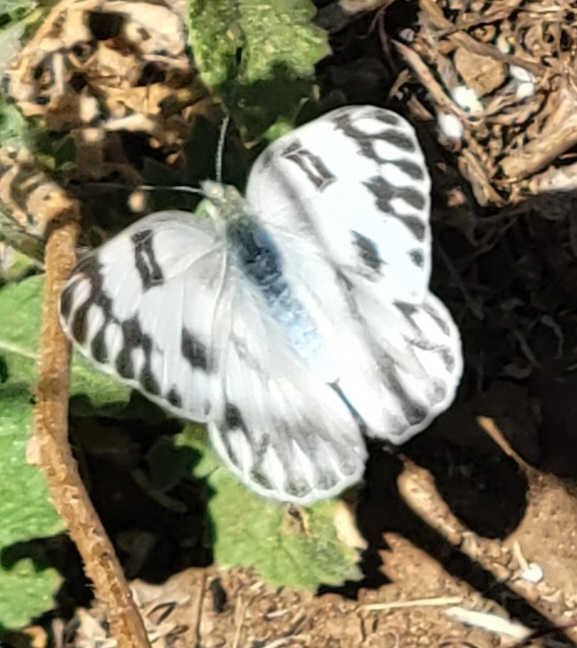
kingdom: Animalia
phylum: Arthropoda
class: Insecta
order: Lepidoptera
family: Pieridae
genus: Pontia
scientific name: Pontia protodice
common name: Checkered white
